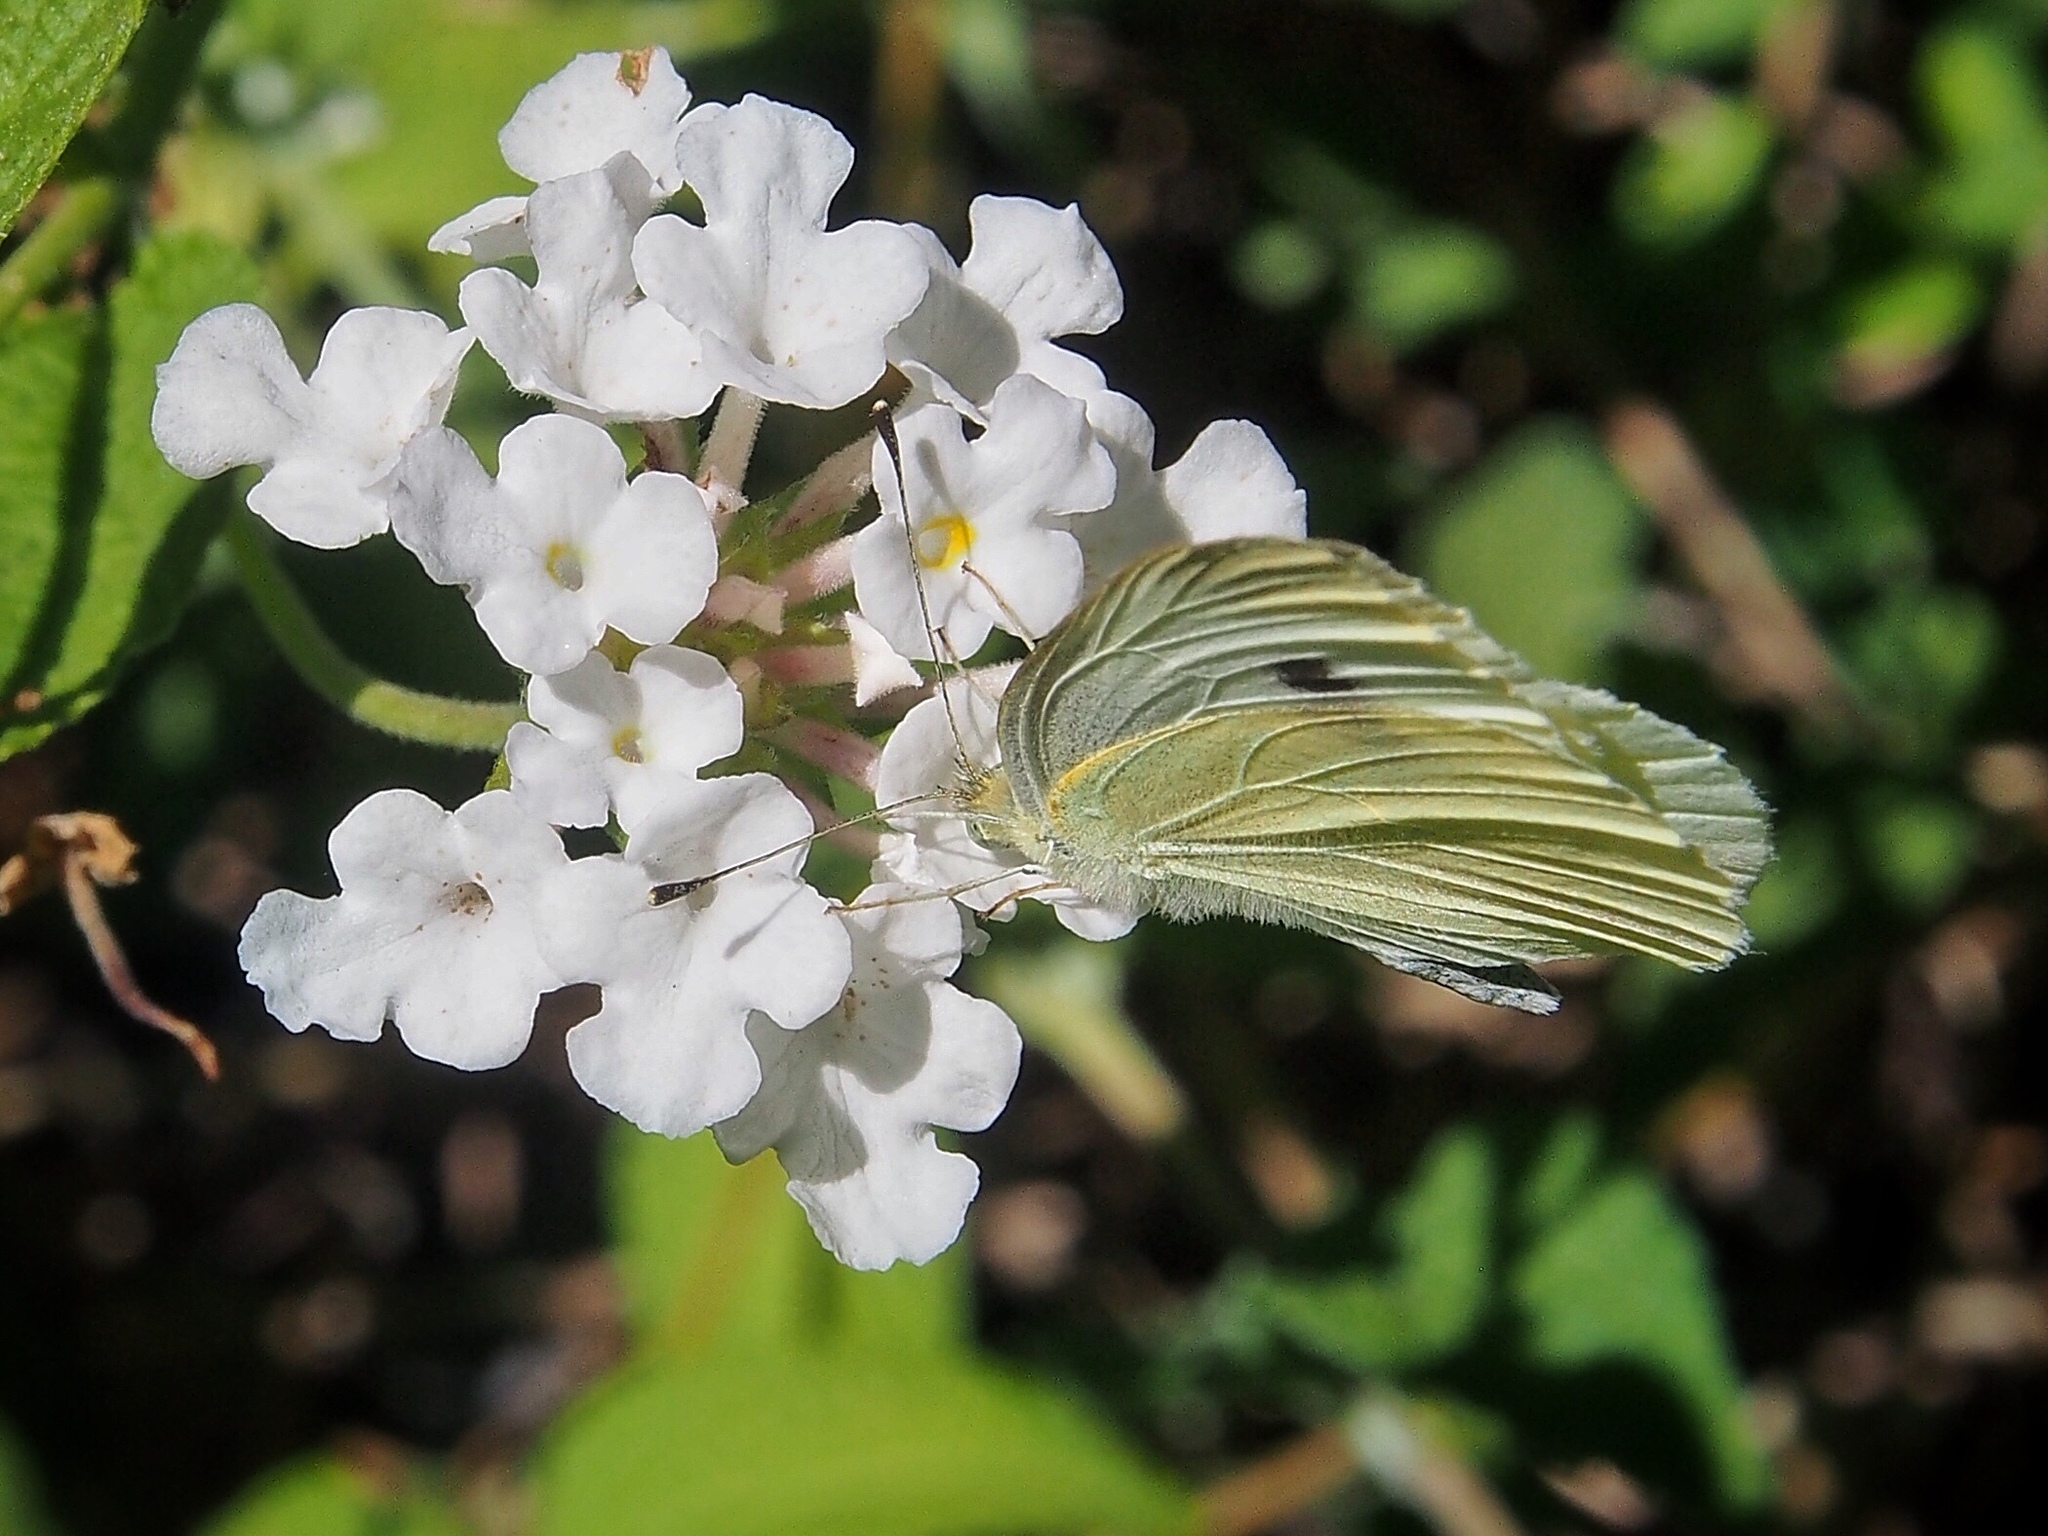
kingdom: Animalia
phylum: Arthropoda
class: Insecta
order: Lepidoptera
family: Pieridae
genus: Pieris
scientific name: Pieris rapae
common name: Small white
